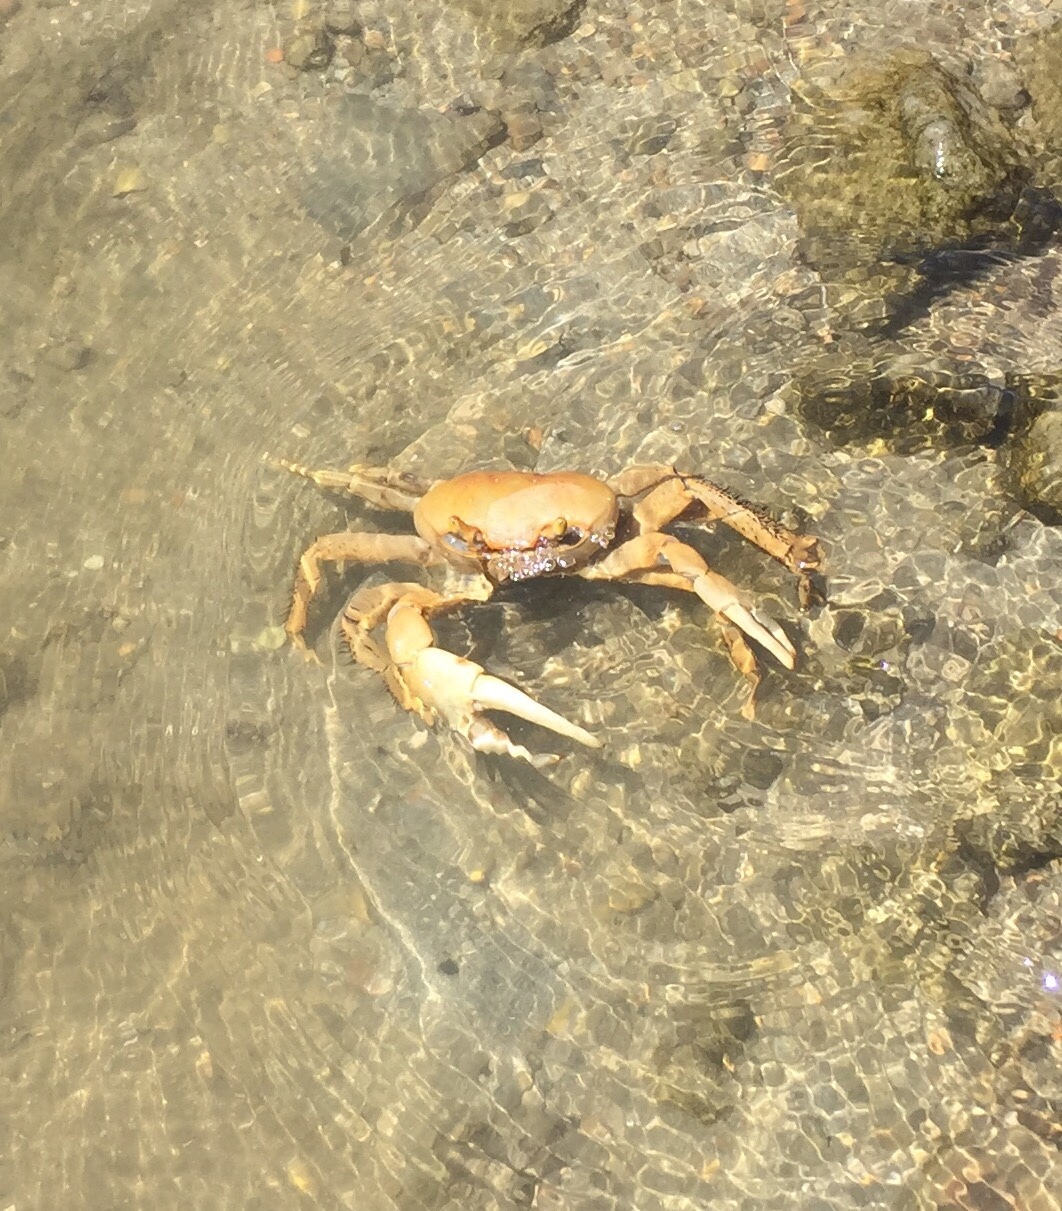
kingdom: Animalia
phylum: Arthropoda
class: Malacostraca
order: Decapoda
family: Gecarcinidae
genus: Cardisoma
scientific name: Cardisoma guanhumi
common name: Great land crab
